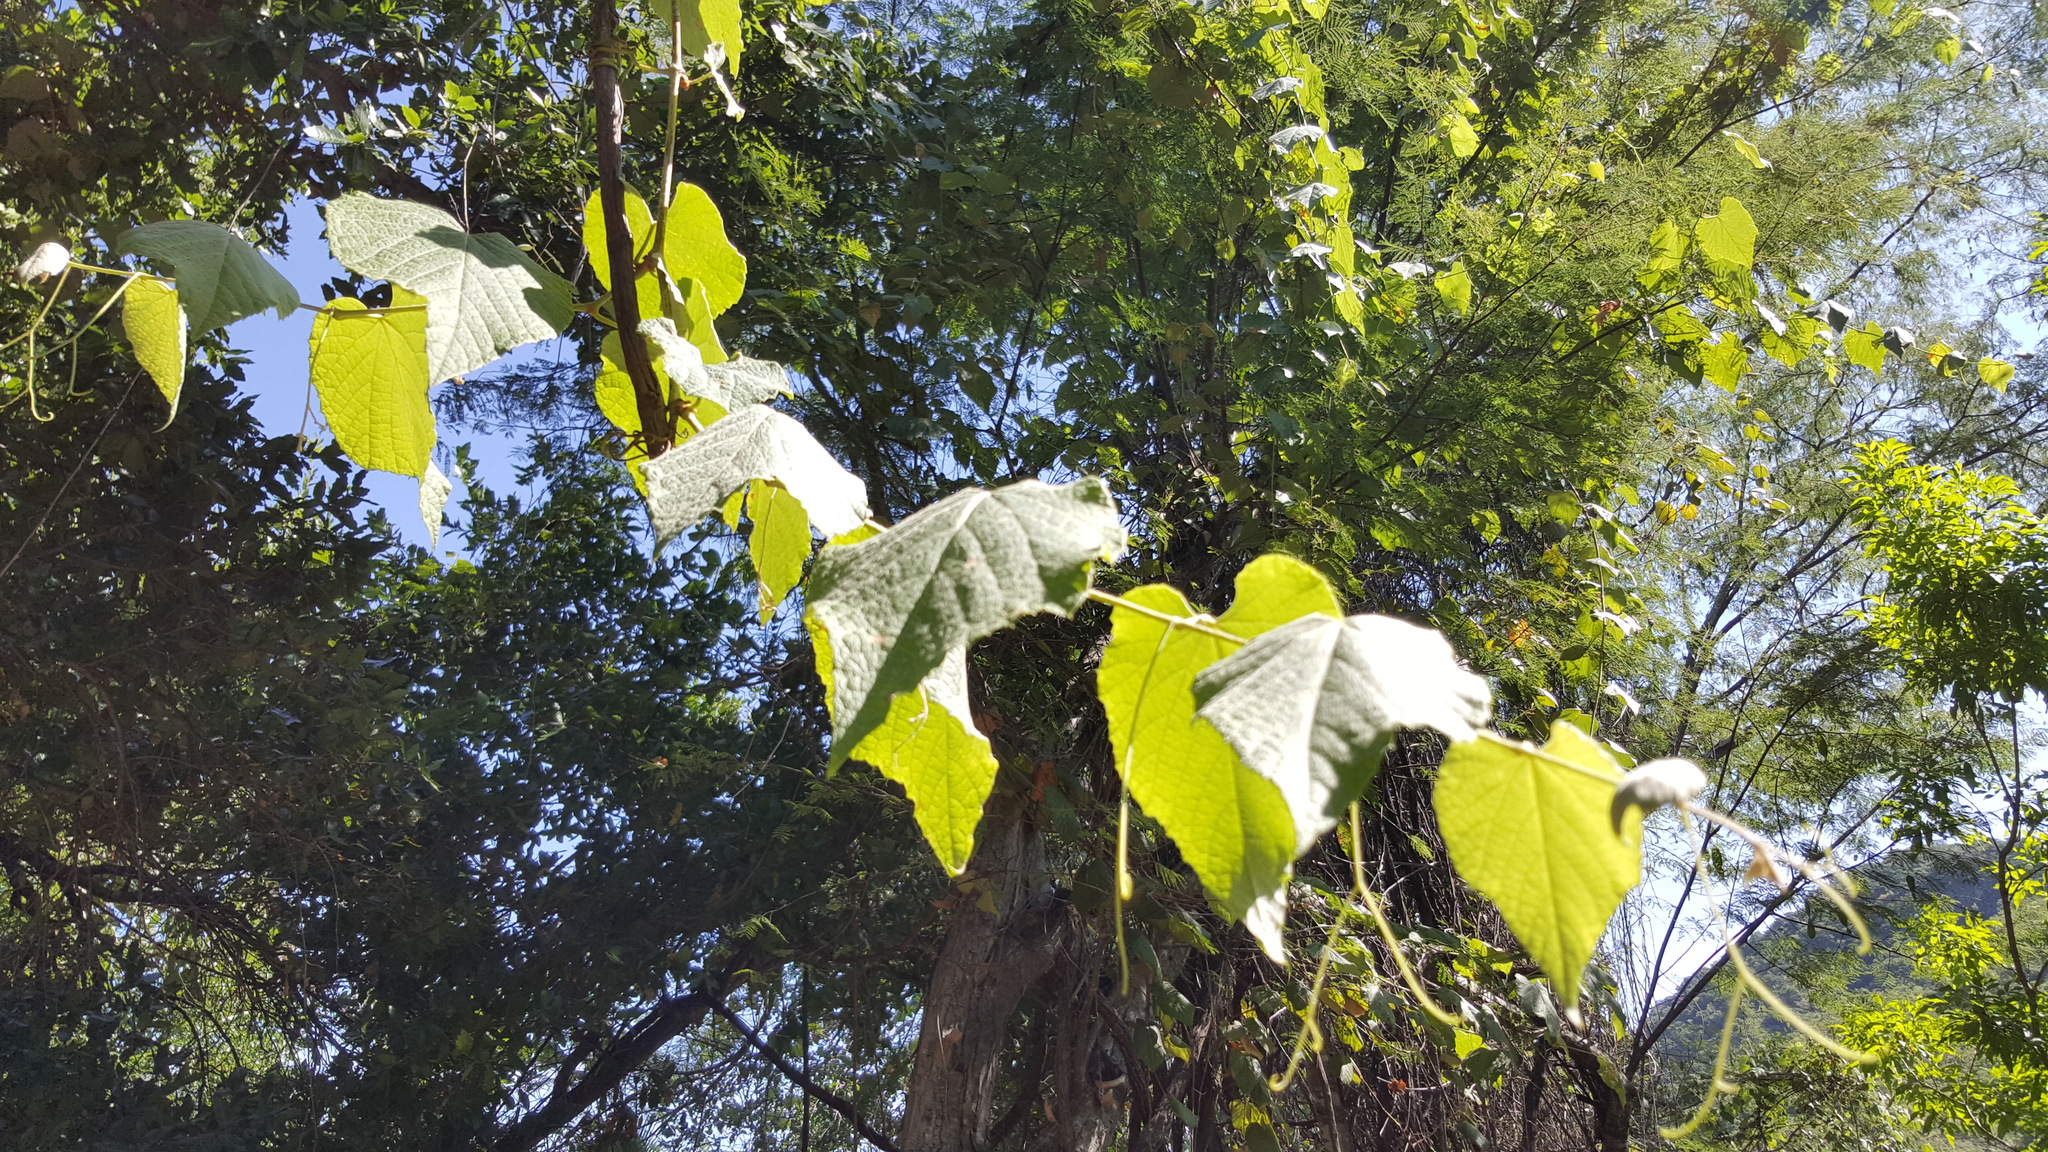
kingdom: Plantae
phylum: Tracheophyta
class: Magnoliopsida
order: Vitales
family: Vitaceae
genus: Vitis
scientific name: Vitis peninsularis
